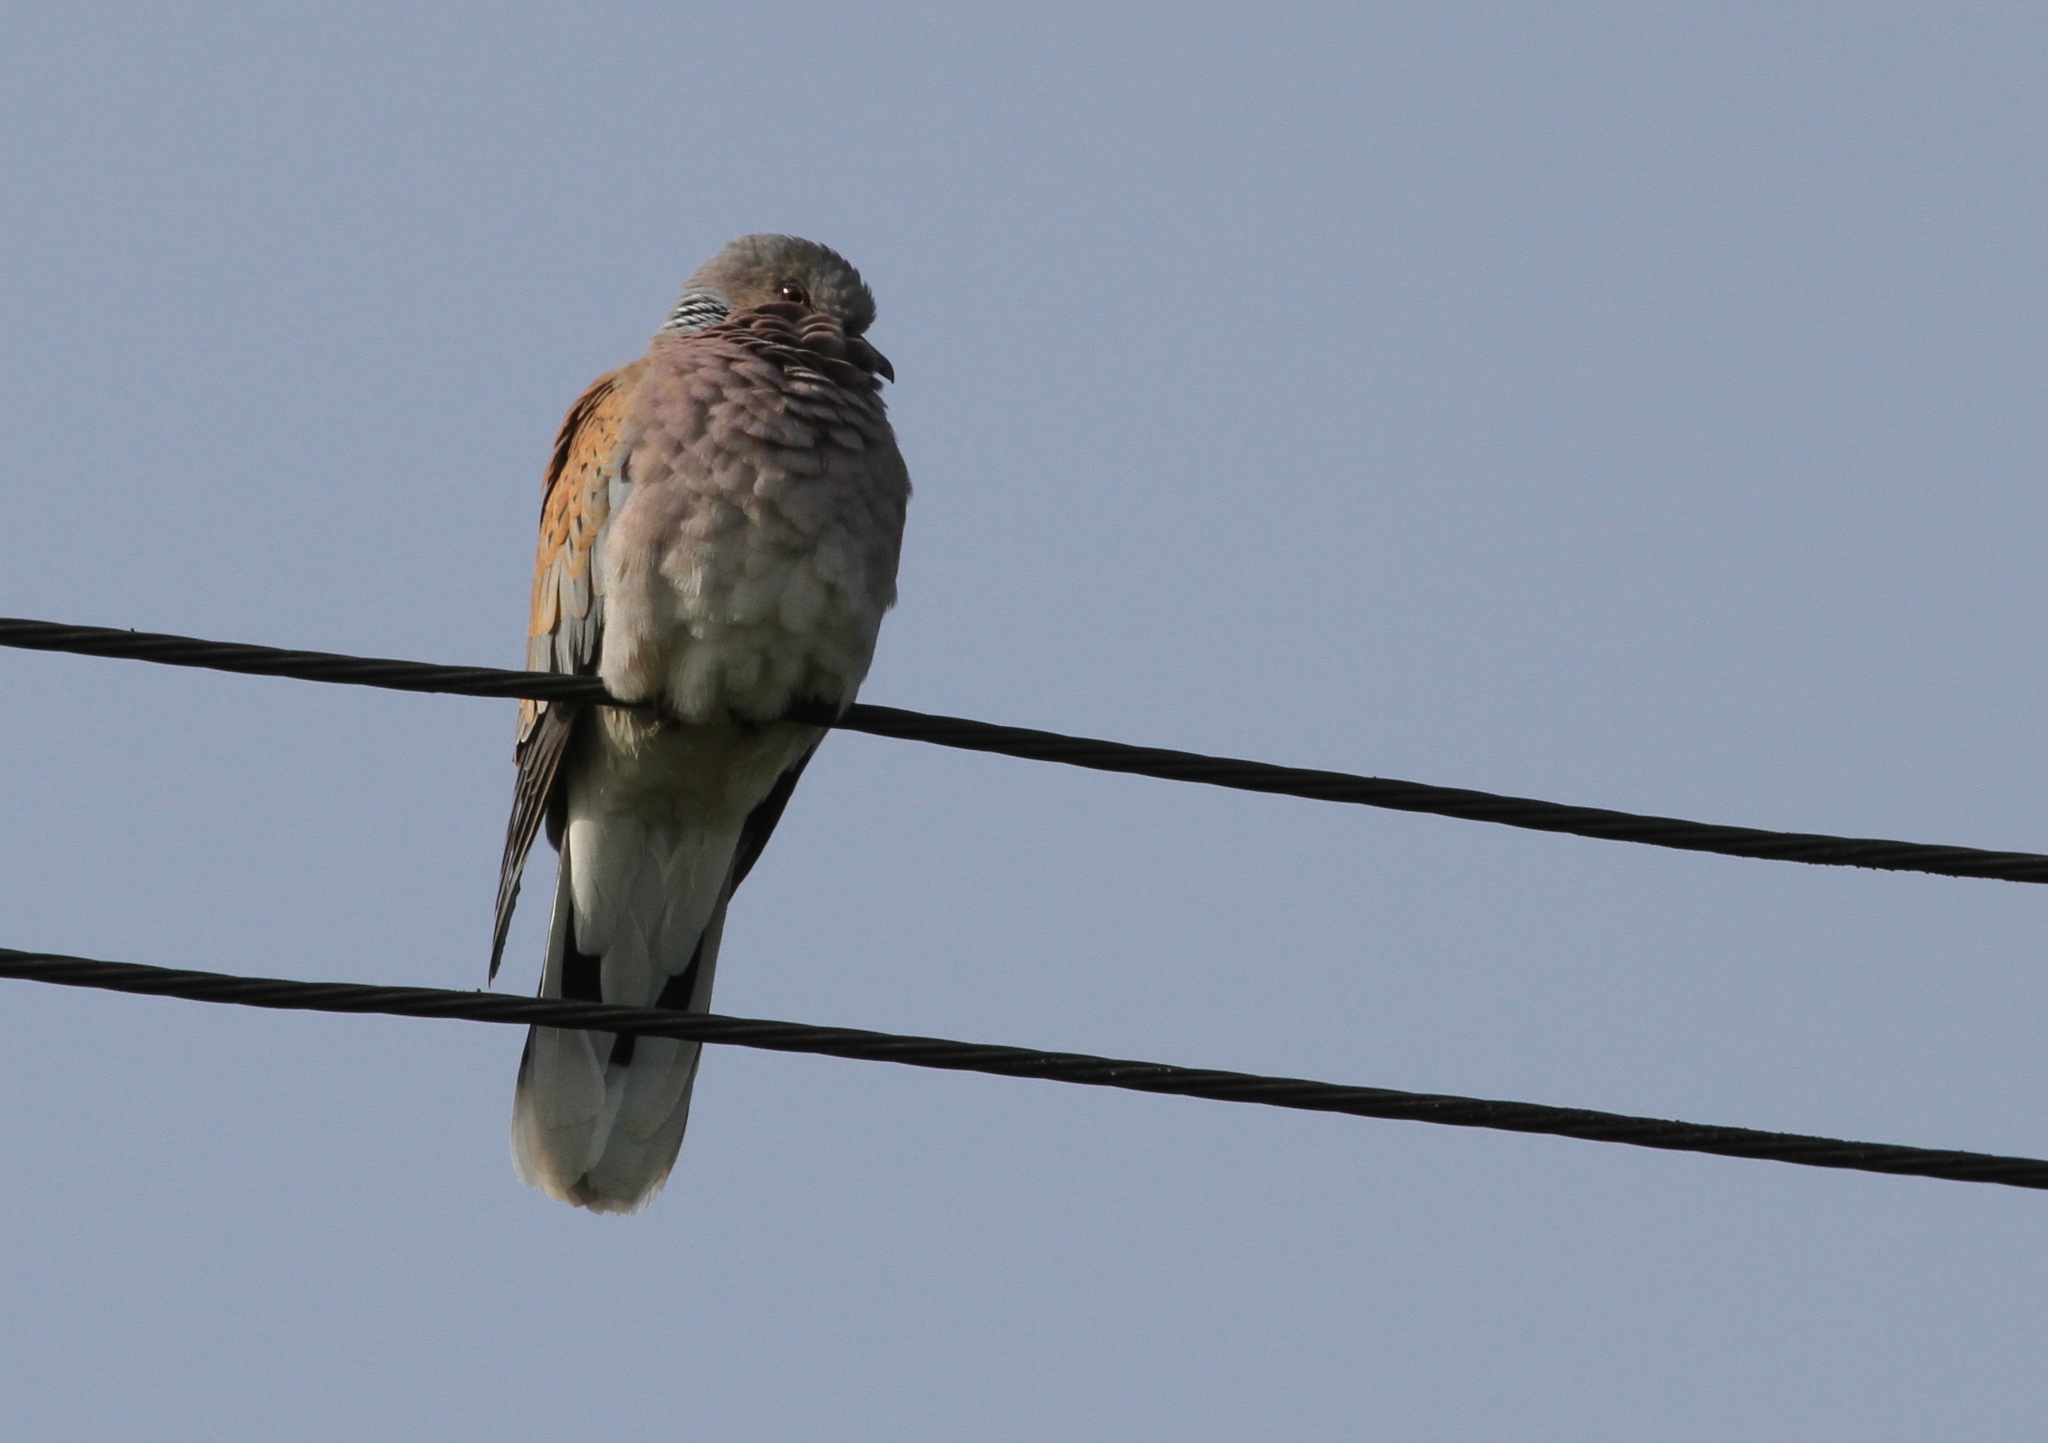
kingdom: Animalia
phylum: Chordata
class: Aves
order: Columbiformes
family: Columbidae
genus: Streptopelia
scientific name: Streptopelia turtur
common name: European turtle dove
